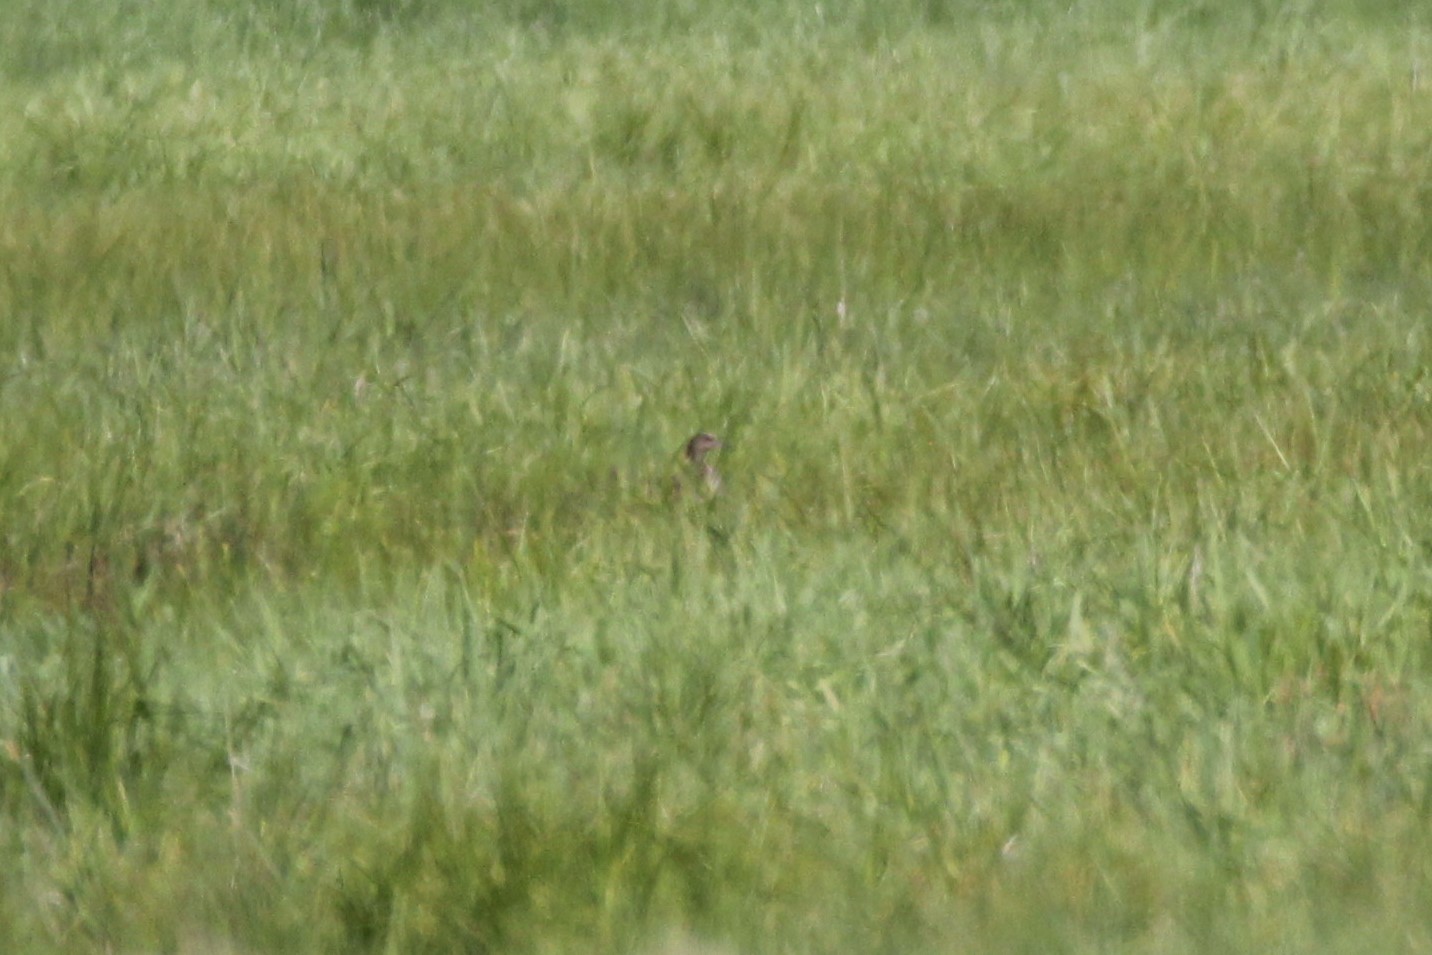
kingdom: Animalia
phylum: Chordata
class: Aves
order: Anseriformes
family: Anatidae
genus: Mareca
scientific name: Mareca americana
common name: American wigeon
